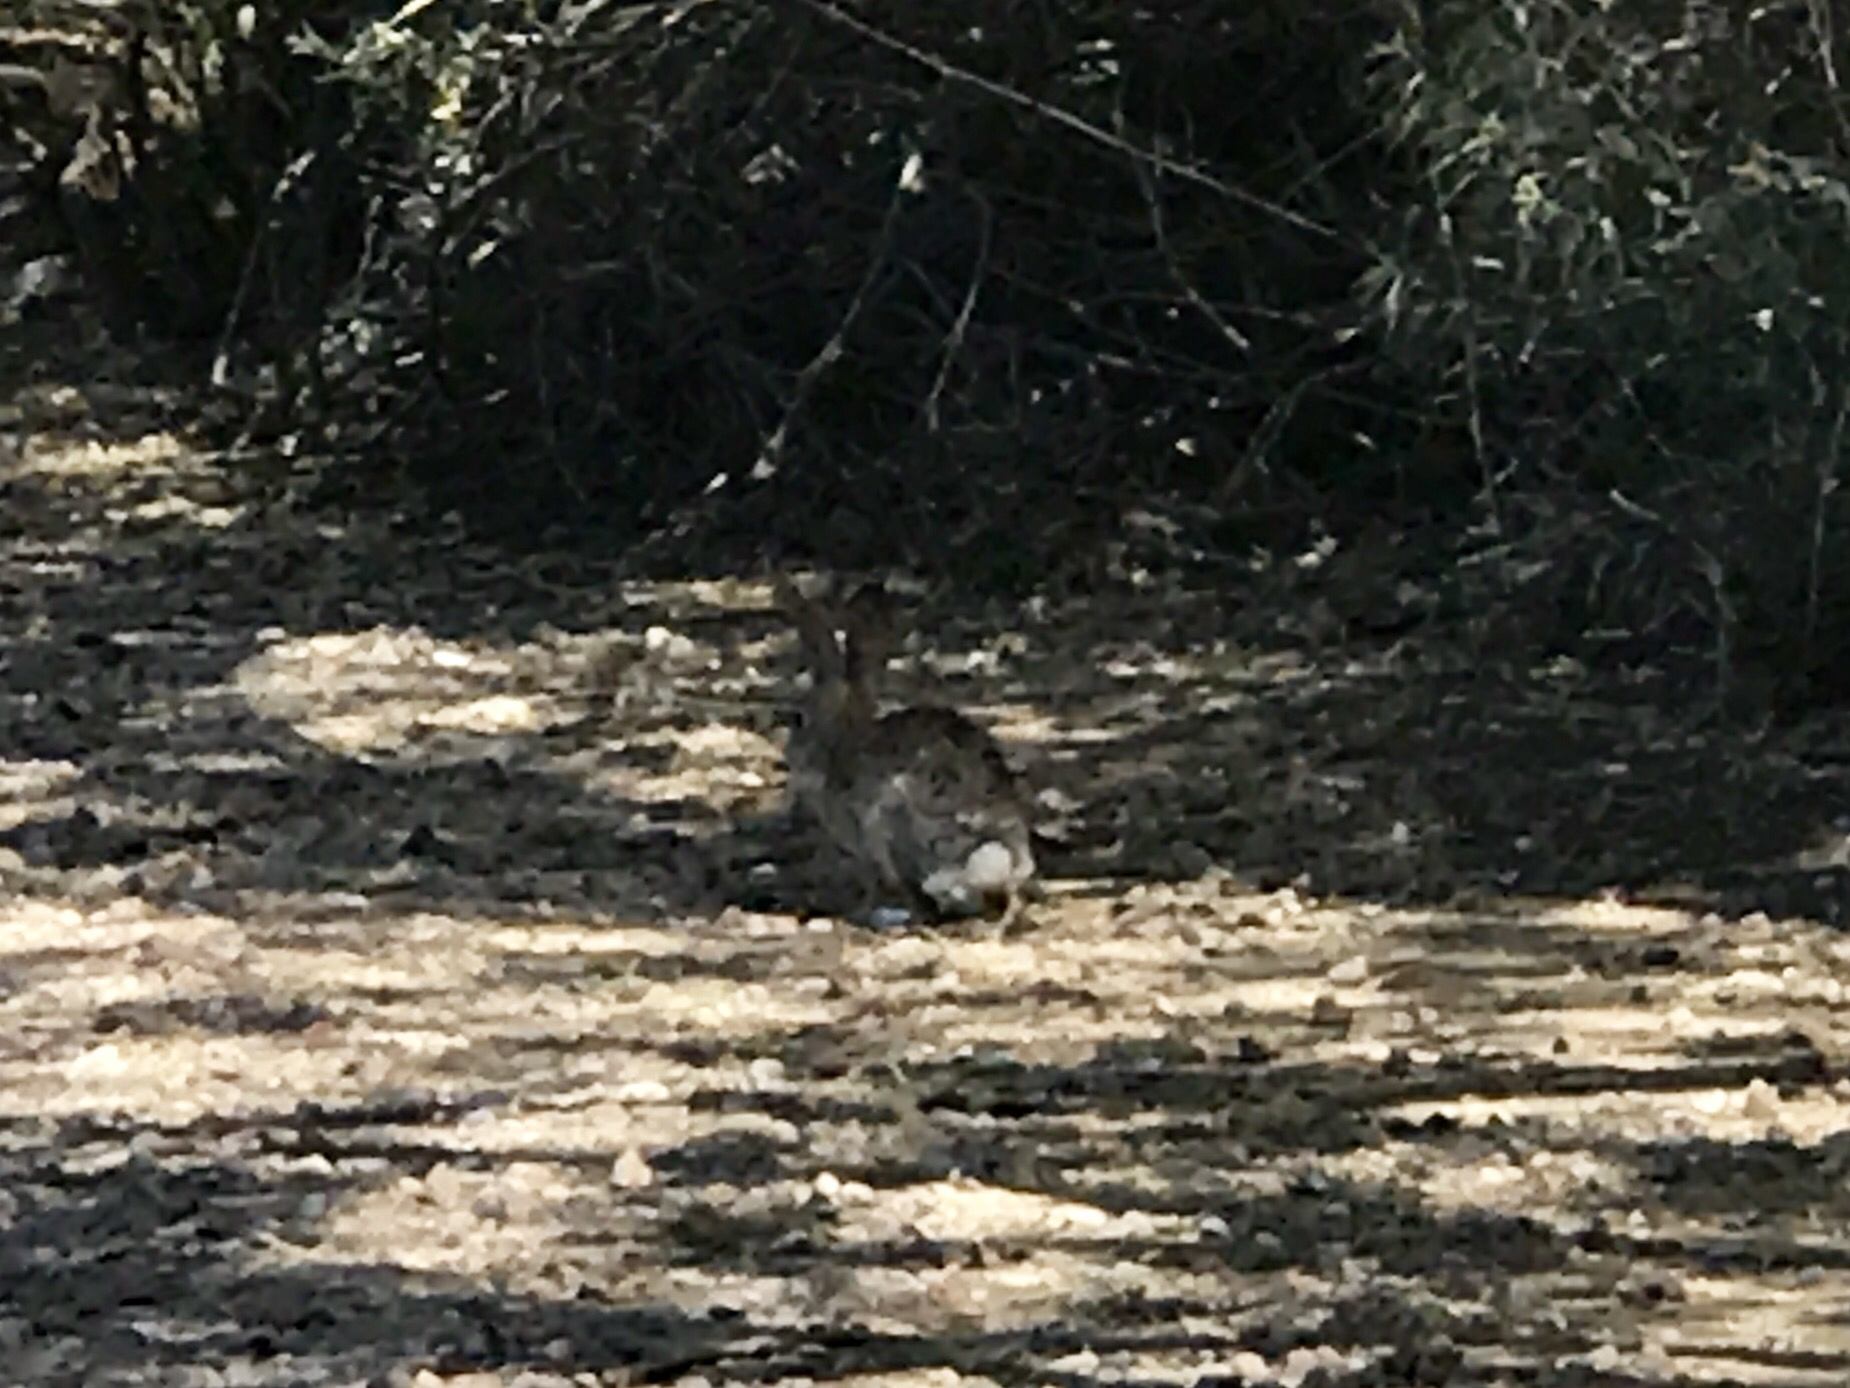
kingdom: Animalia
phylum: Chordata
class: Mammalia
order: Lagomorpha
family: Leporidae
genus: Sylvilagus
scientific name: Sylvilagus audubonii
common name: Desert cottontail
